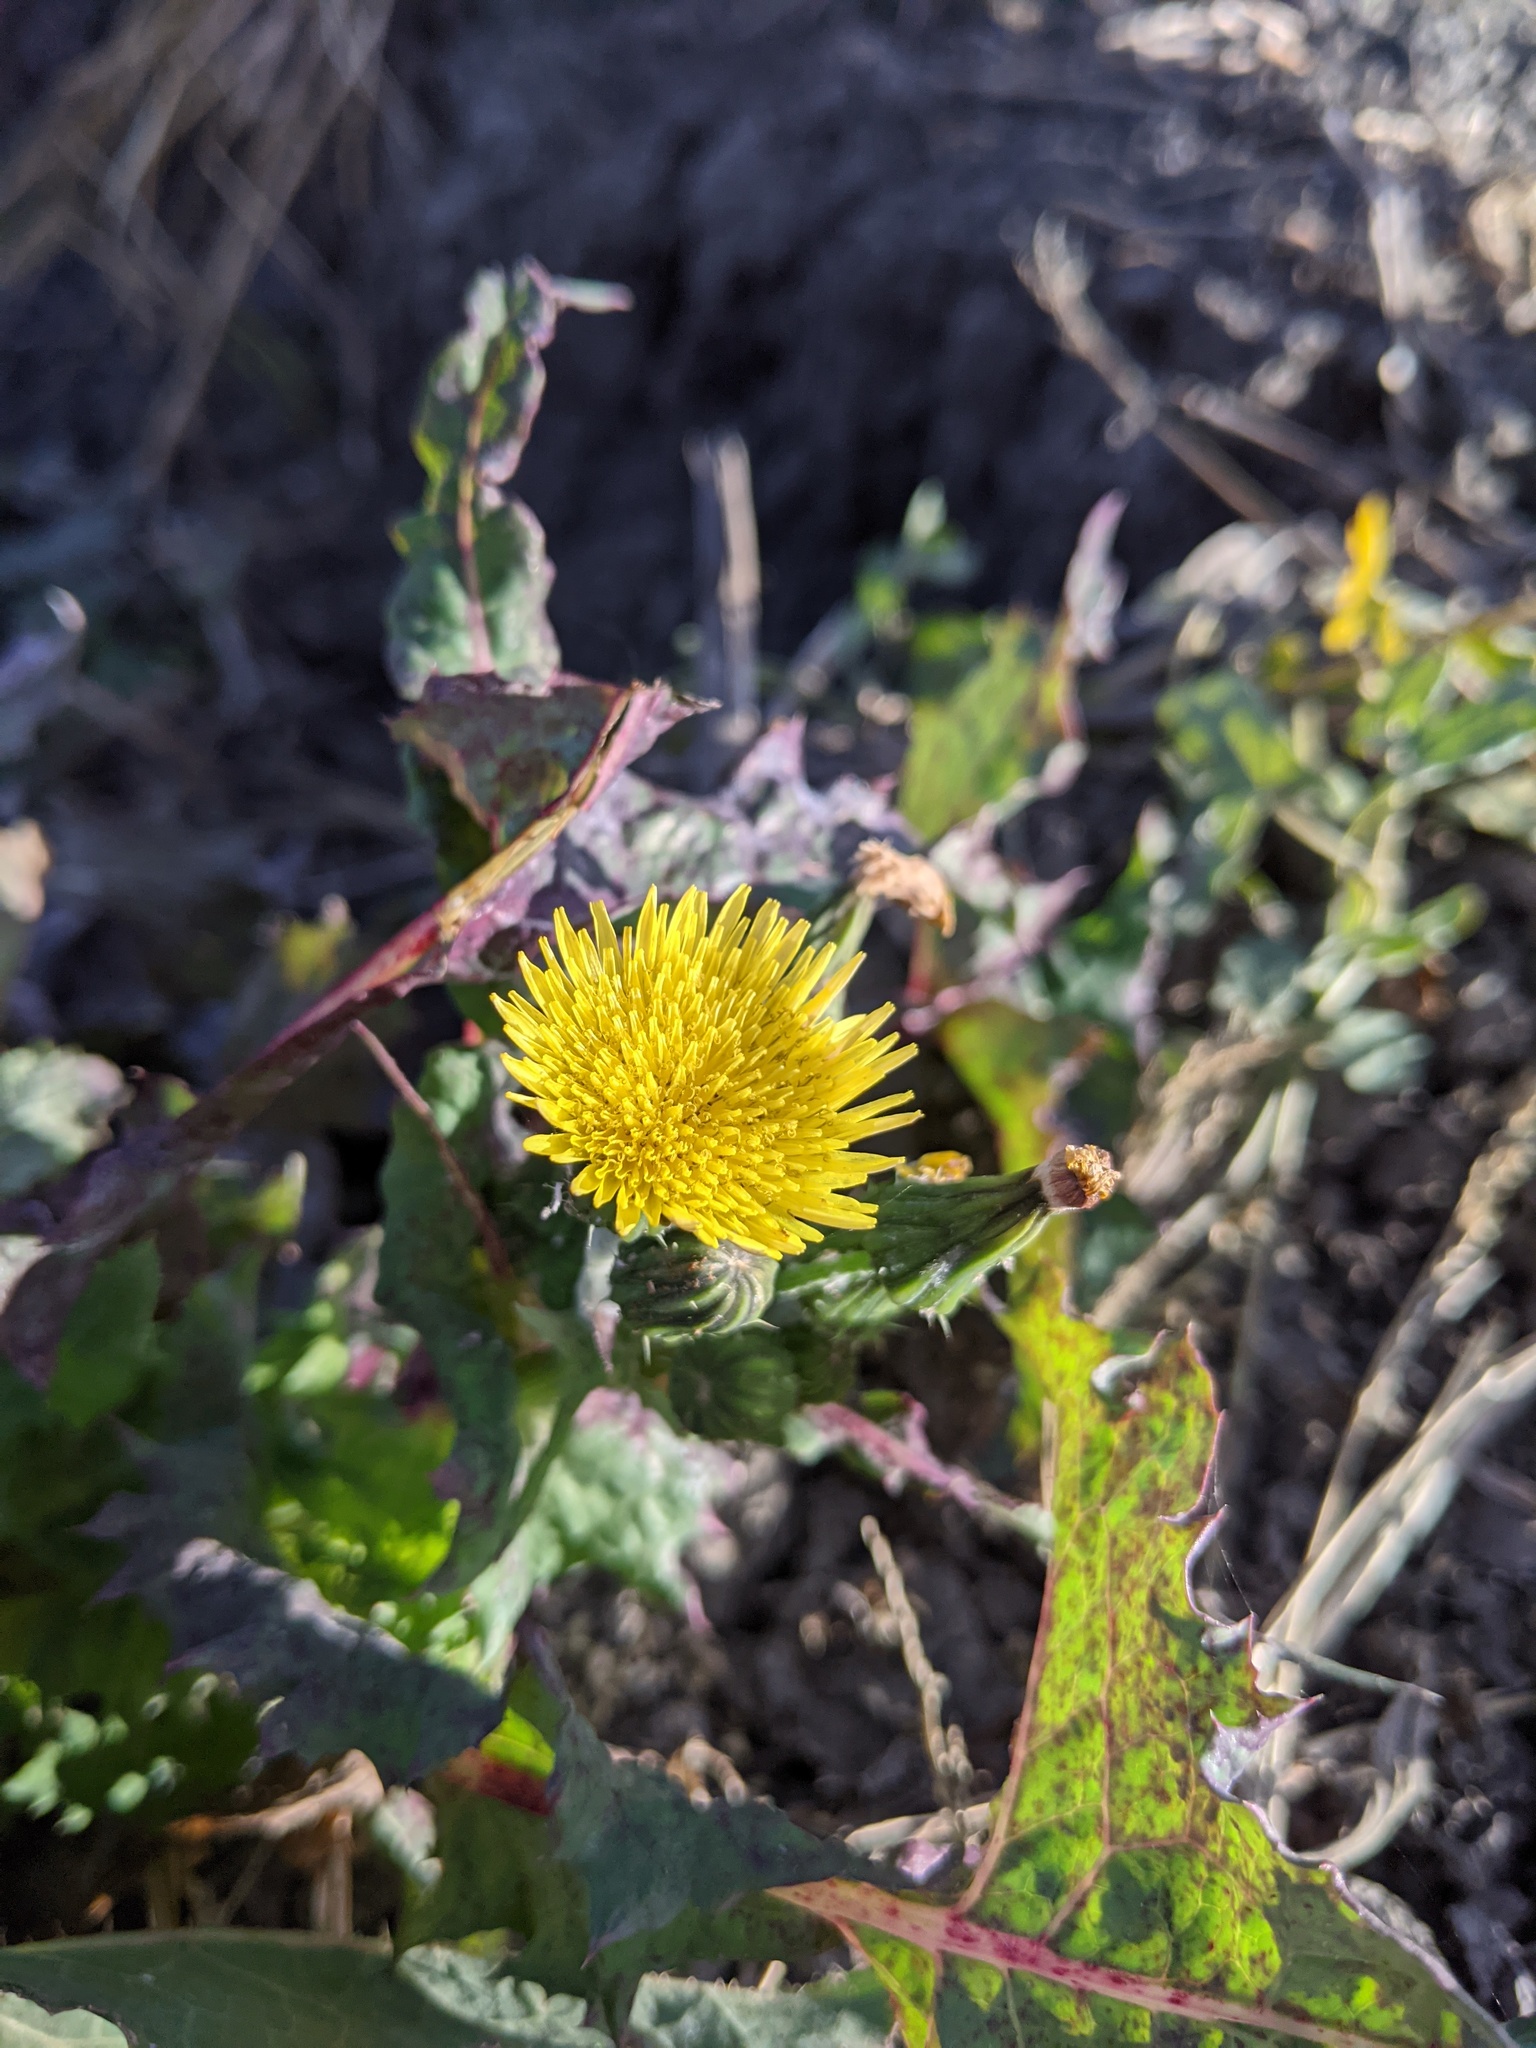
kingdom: Plantae
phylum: Tracheophyta
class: Magnoliopsida
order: Asterales
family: Asteraceae
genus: Sonchus
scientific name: Sonchus oleraceus
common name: Common sowthistle
